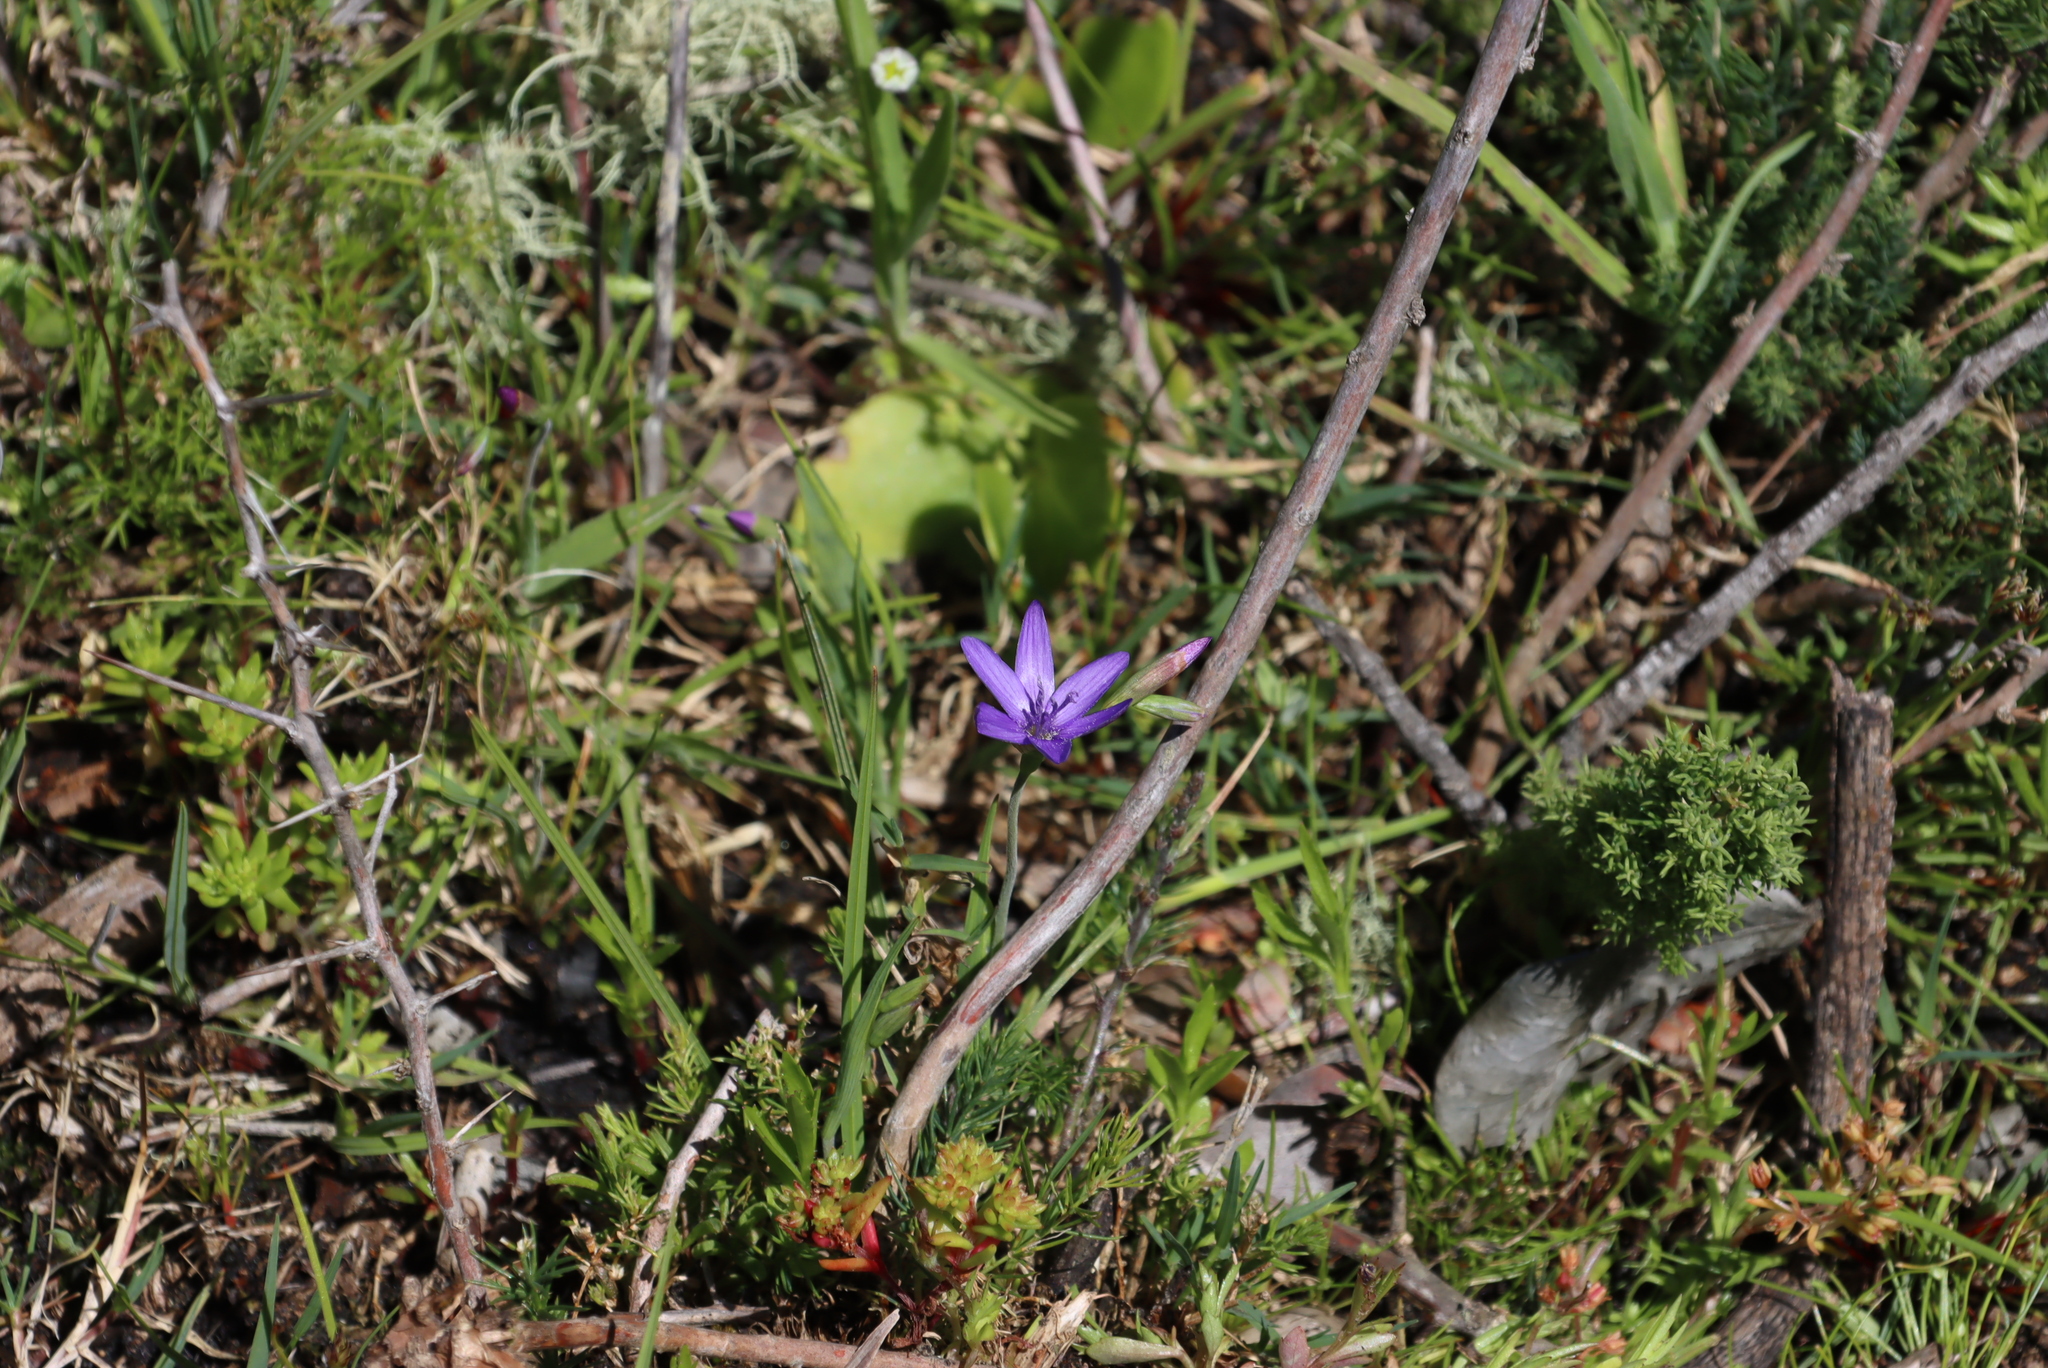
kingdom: Plantae
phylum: Tracheophyta
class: Liliopsida
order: Asparagales
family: Iridaceae
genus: Geissorhiza
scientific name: Geissorhiza aspera
